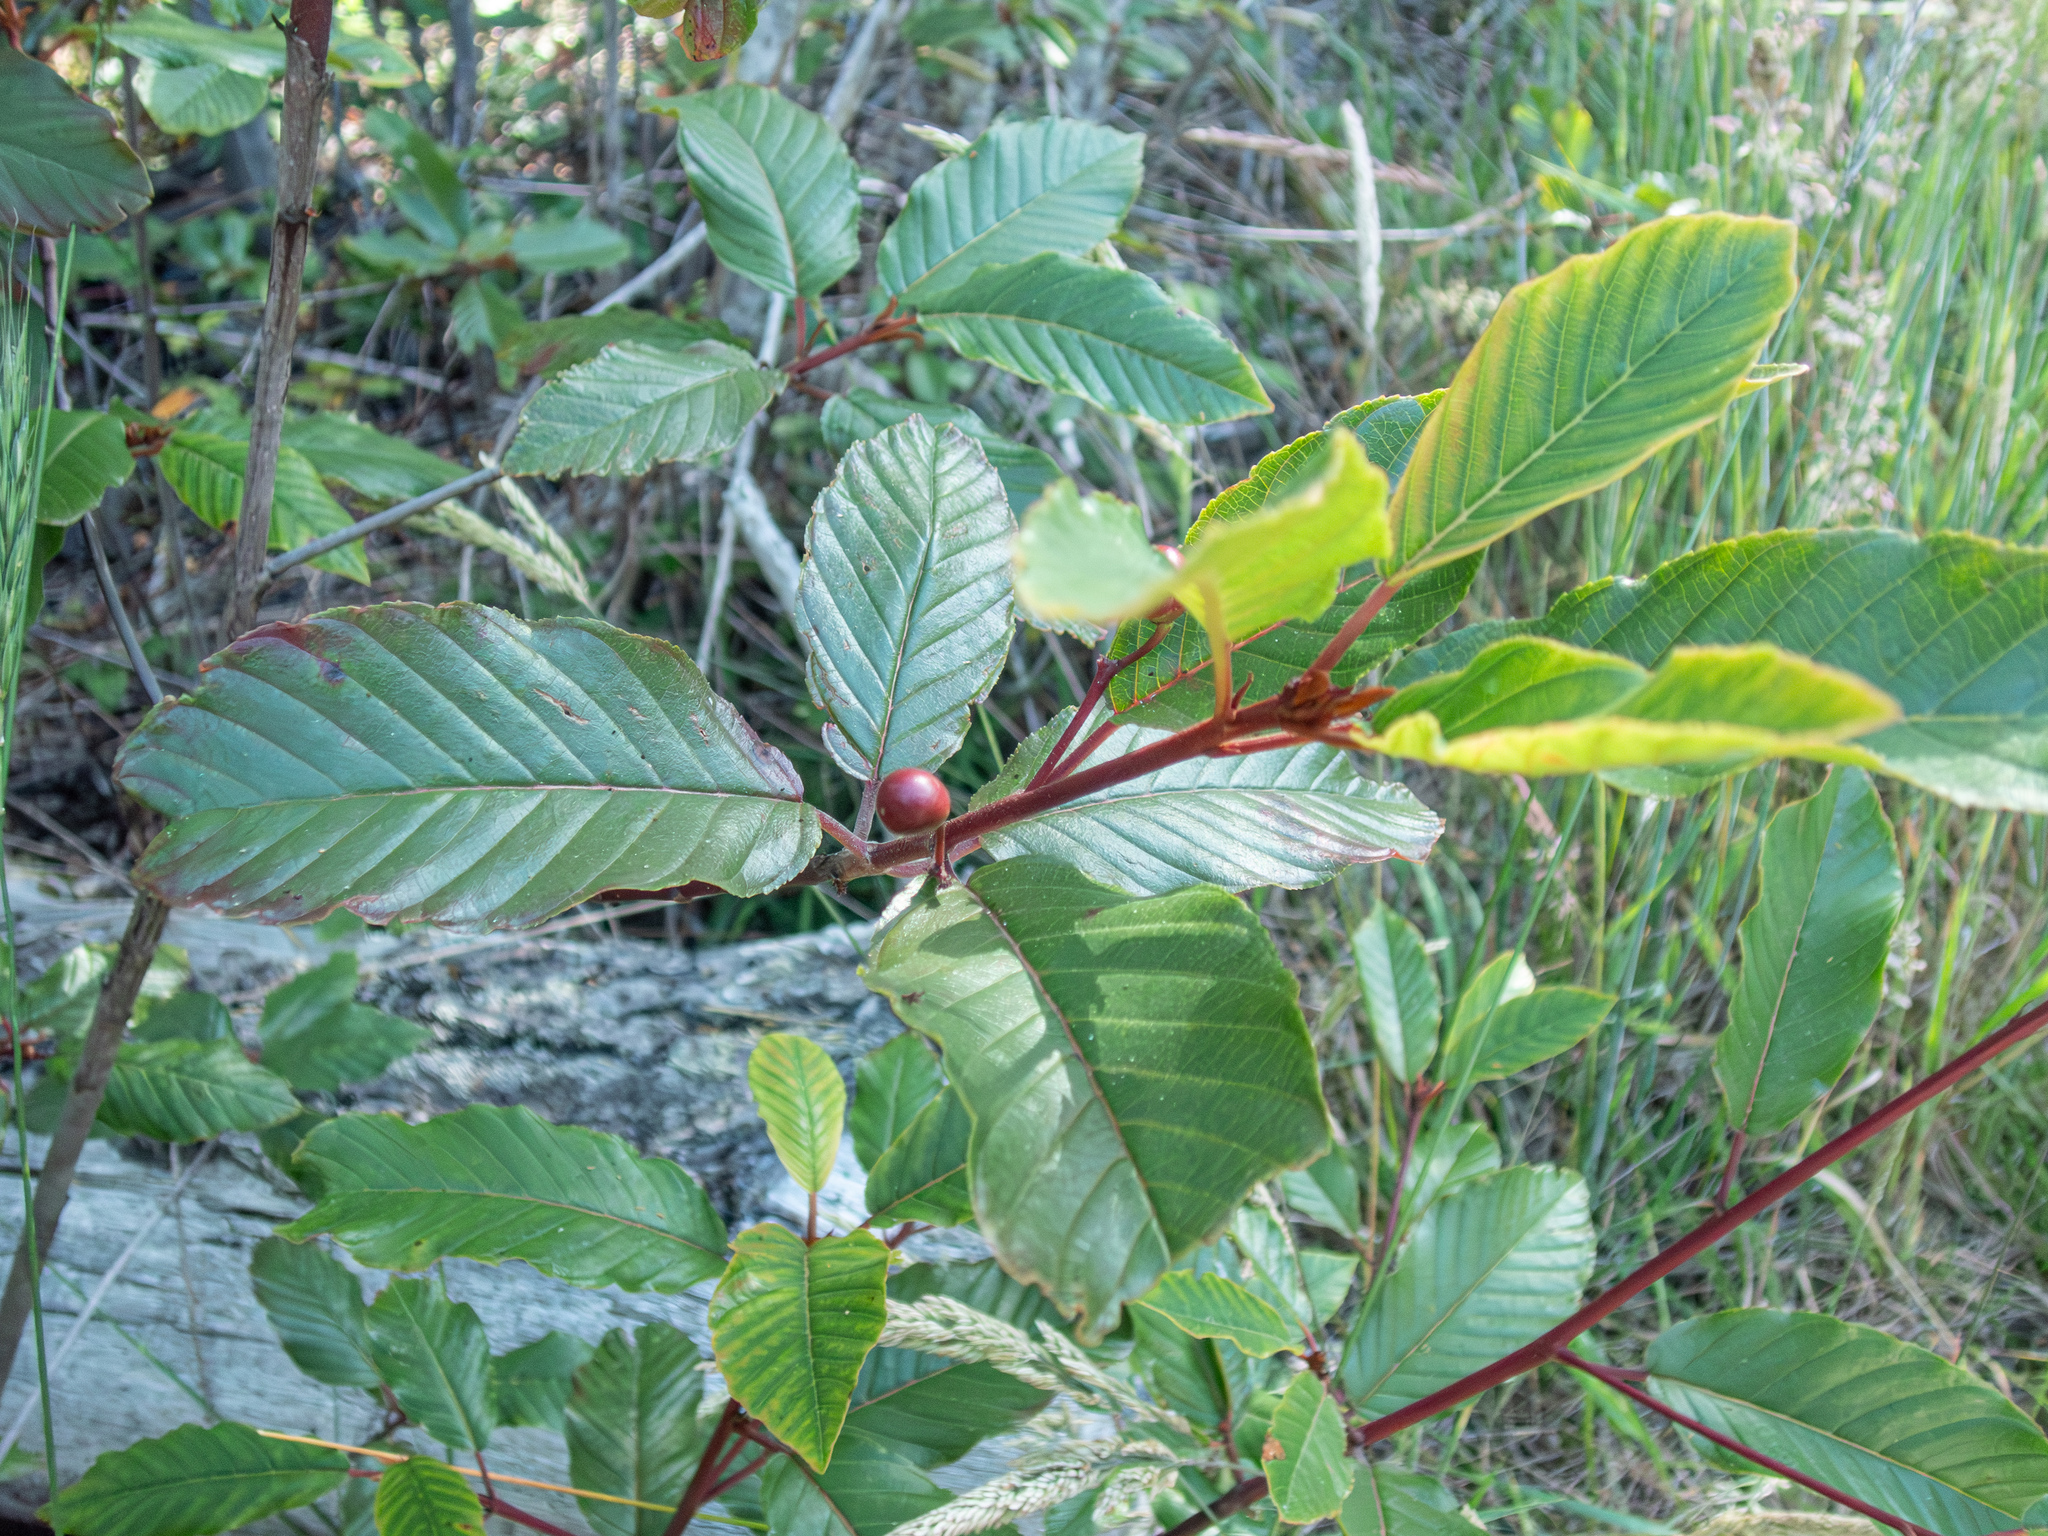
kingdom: Plantae
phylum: Tracheophyta
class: Magnoliopsida
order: Rosales
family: Rhamnaceae
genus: Frangula
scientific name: Frangula purshiana
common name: Cascara buckthorn
